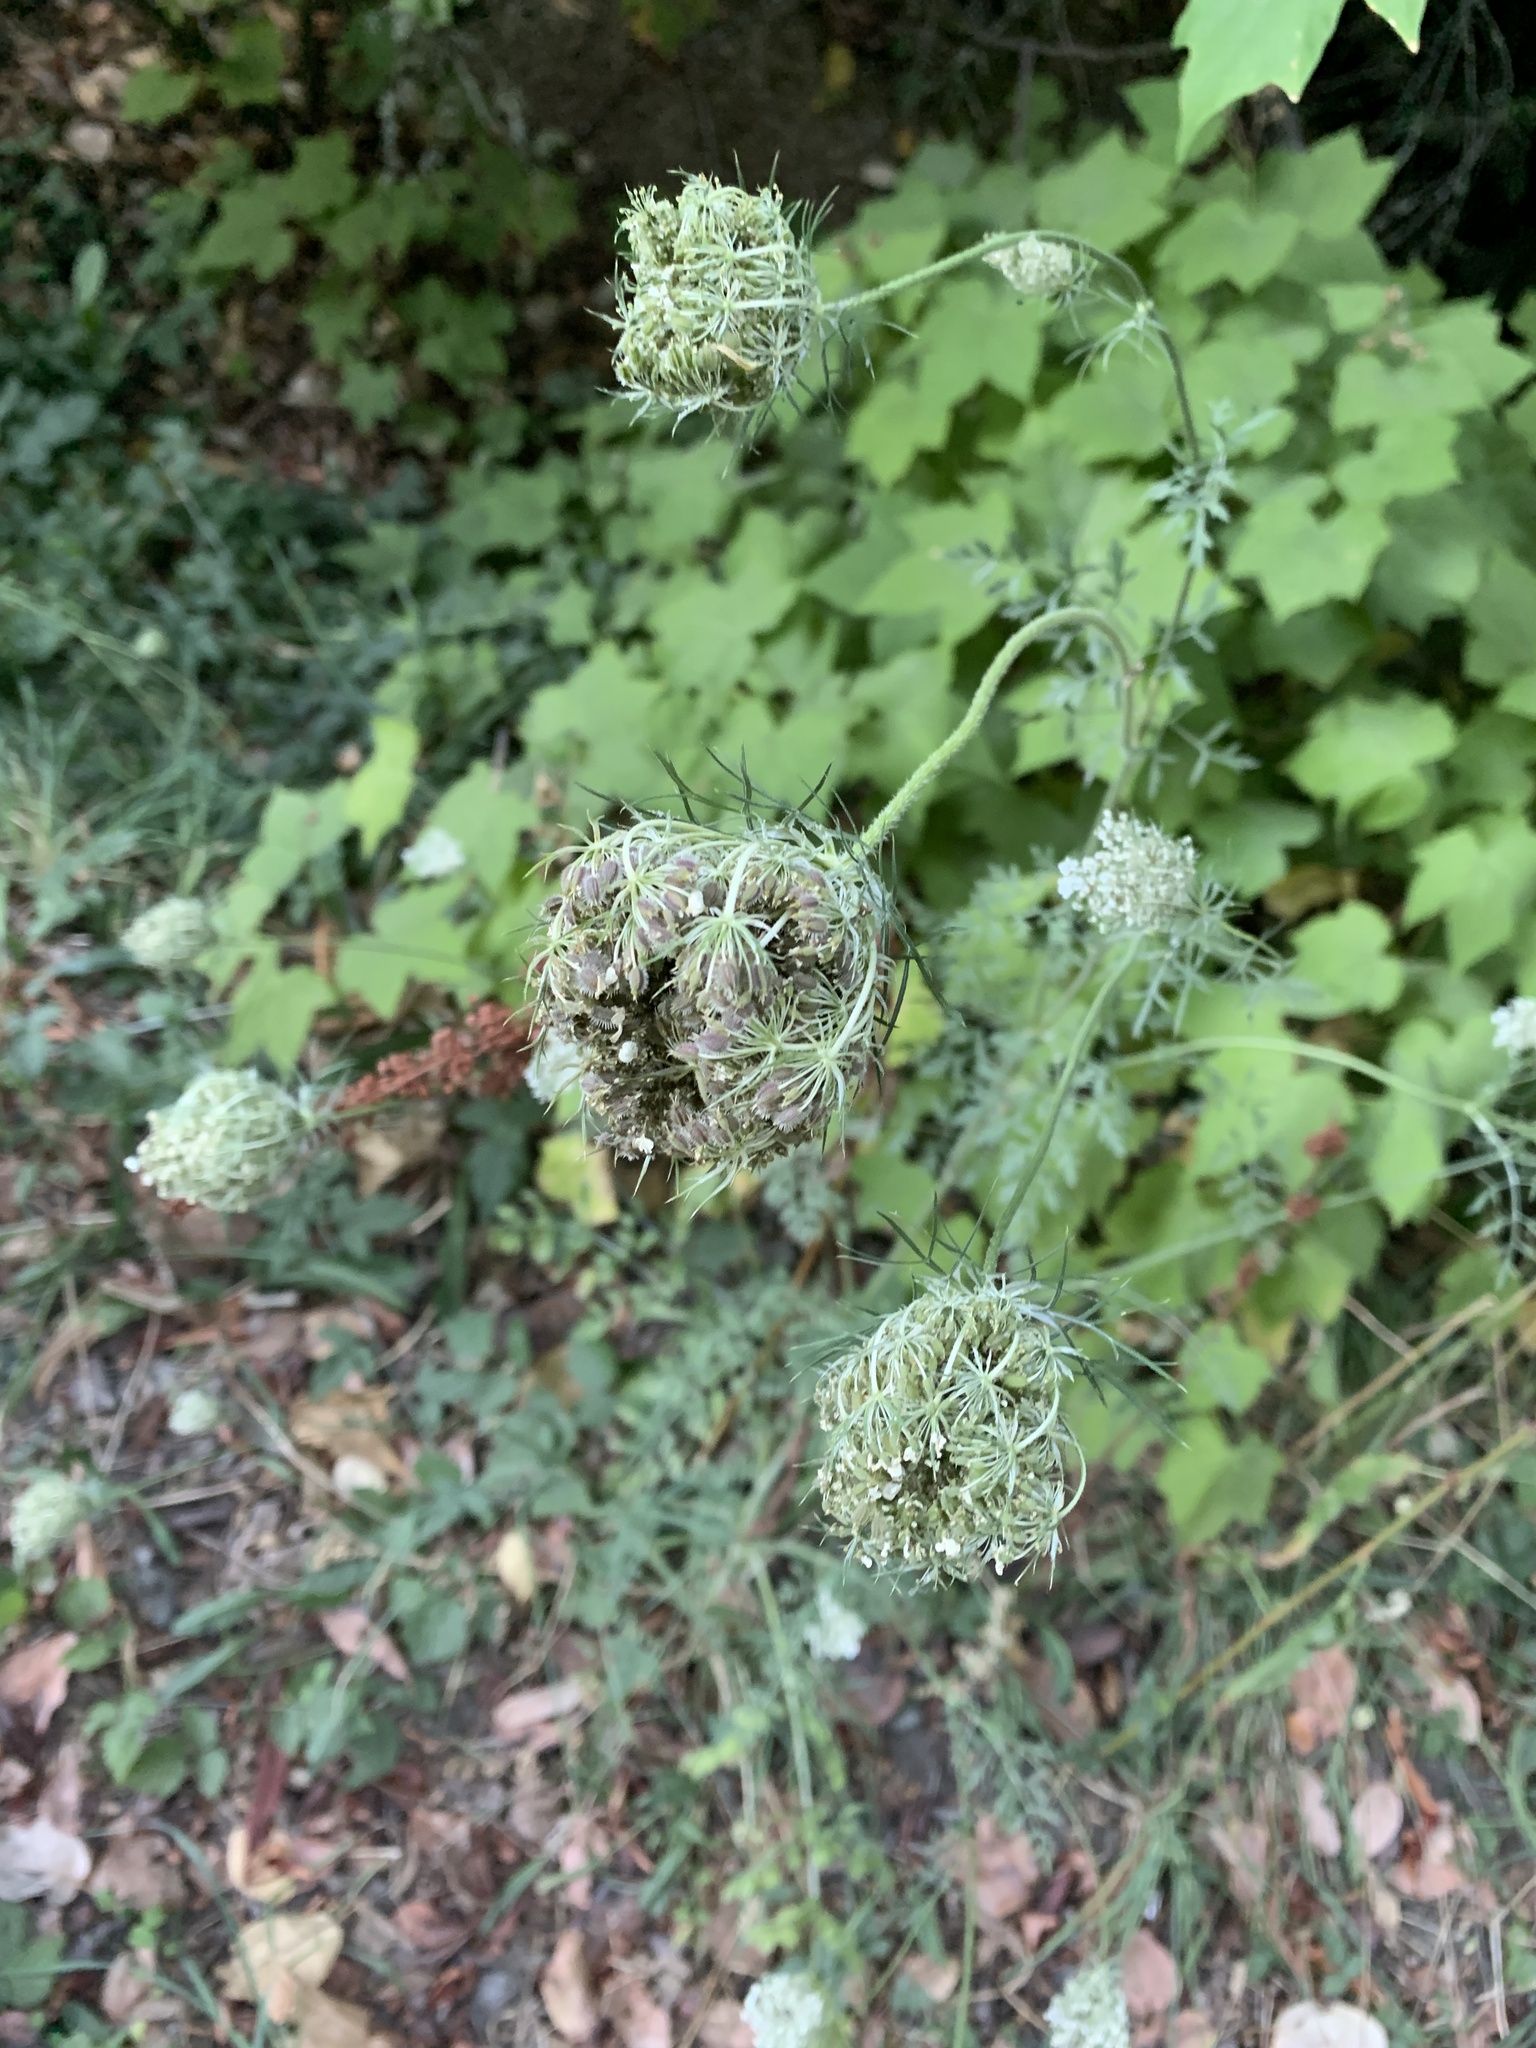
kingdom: Plantae
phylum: Tracheophyta
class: Magnoliopsida
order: Apiales
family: Apiaceae
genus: Daucus
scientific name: Daucus carota
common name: Wild carrot
